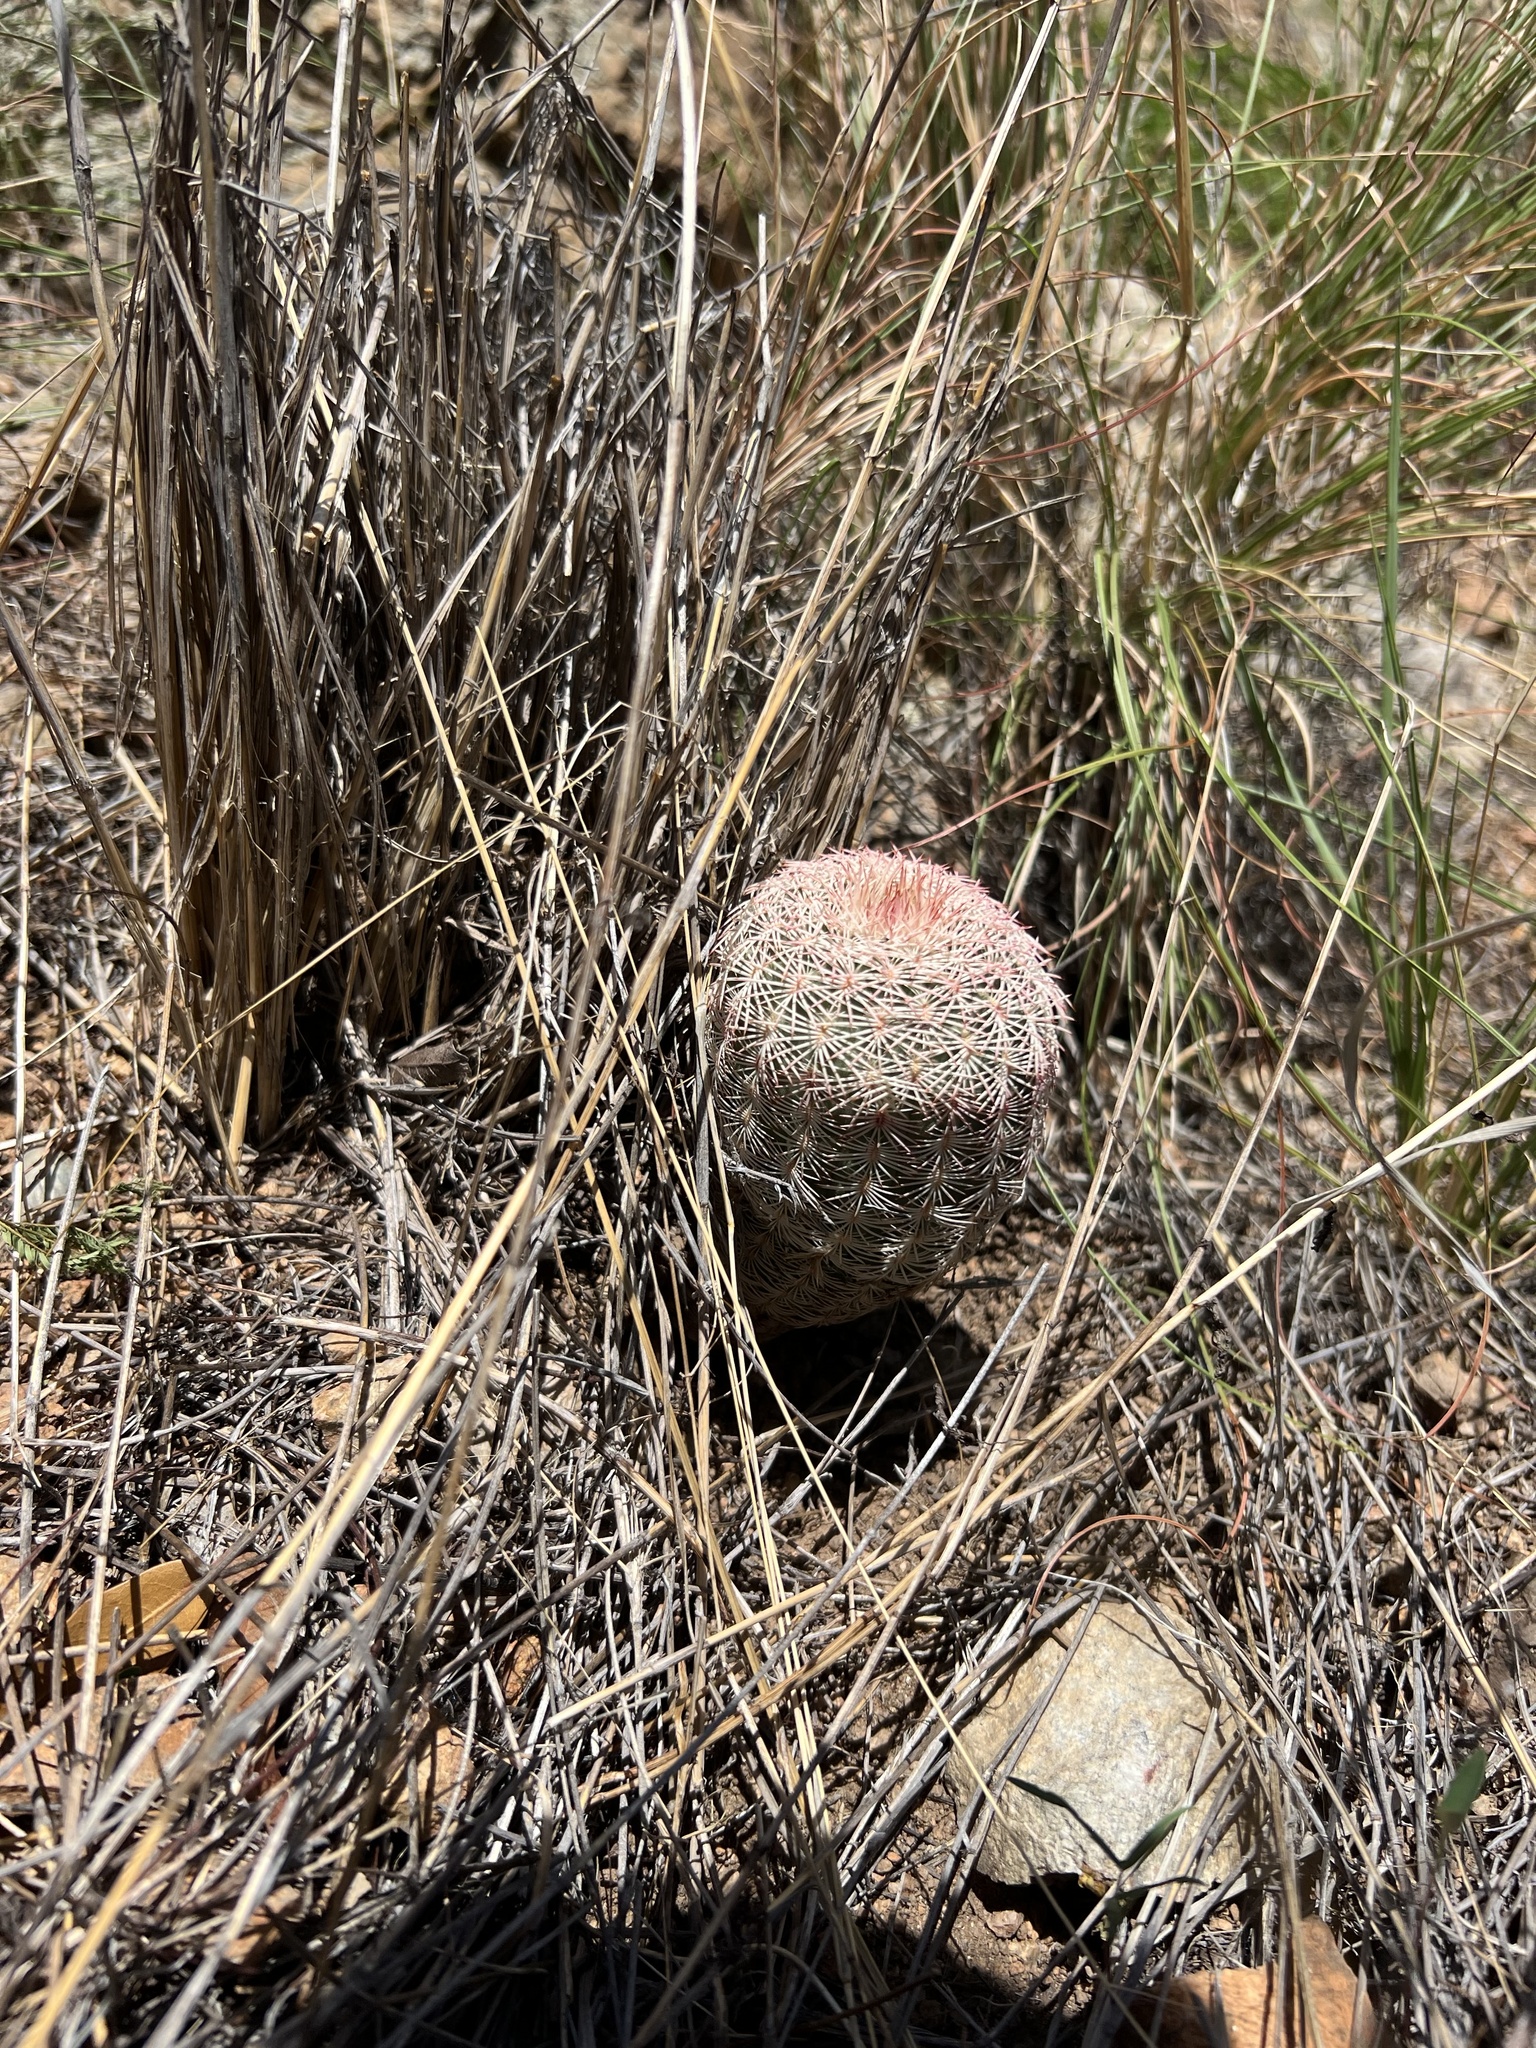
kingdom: Plantae
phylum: Tracheophyta
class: Magnoliopsida
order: Caryophyllales
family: Cactaceae
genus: Echinocereus
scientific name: Echinocereus rigidissimus
